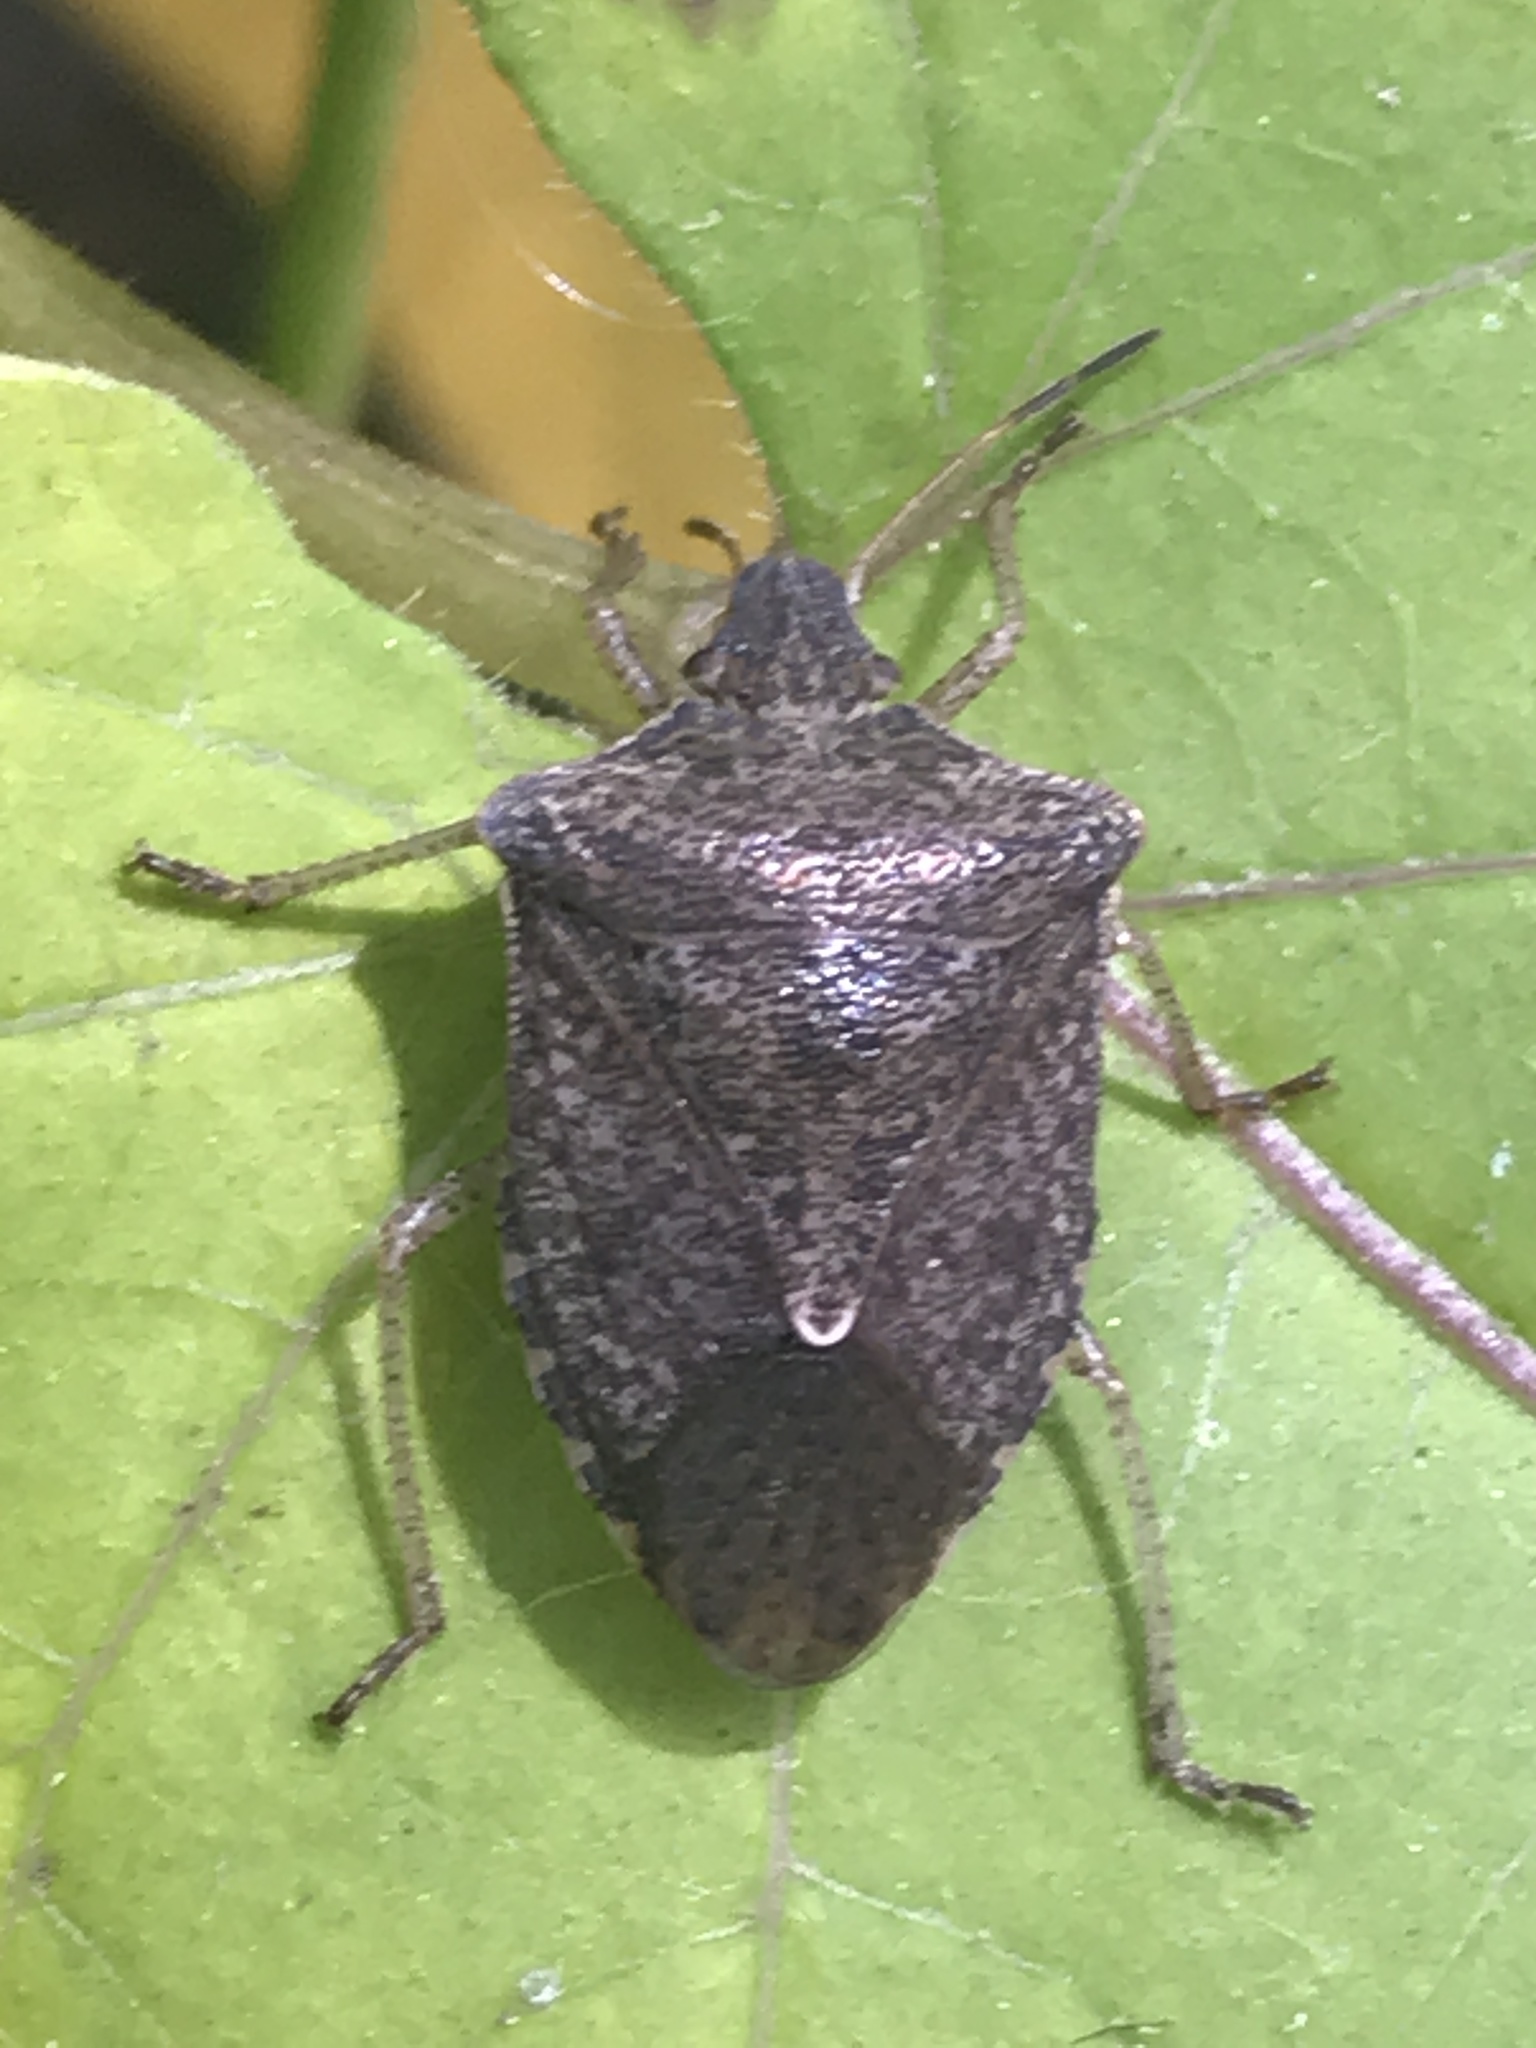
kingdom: Animalia
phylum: Arthropoda
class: Insecta
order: Hemiptera
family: Pentatomidae
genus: Euschistus
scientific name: Euschistus servus
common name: Brown stink bug
